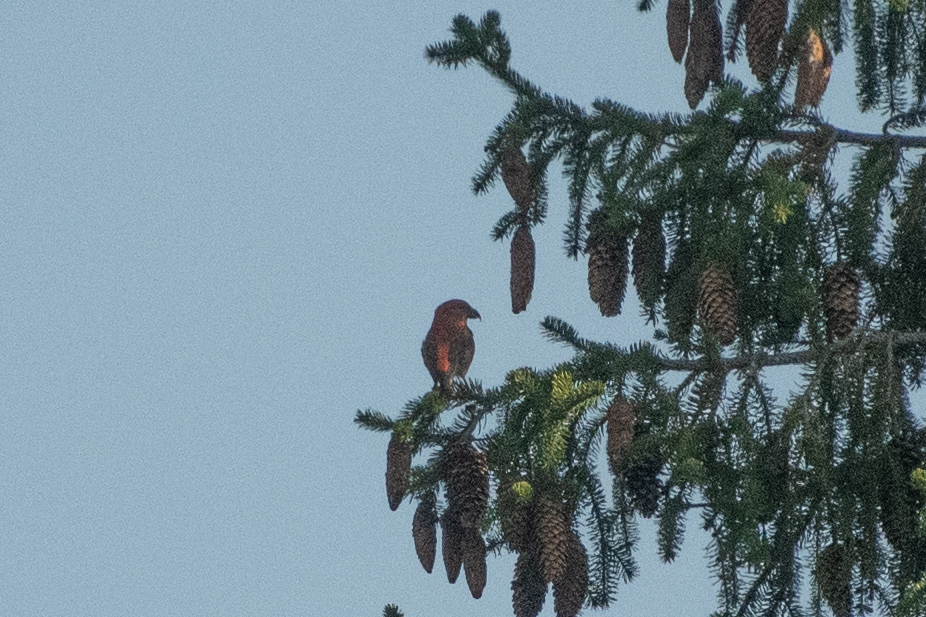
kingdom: Animalia
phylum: Chordata
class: Aves
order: Passeriformes
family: Fringillidae
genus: Loxia
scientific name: Loxia curvirostra
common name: Red crossbill
